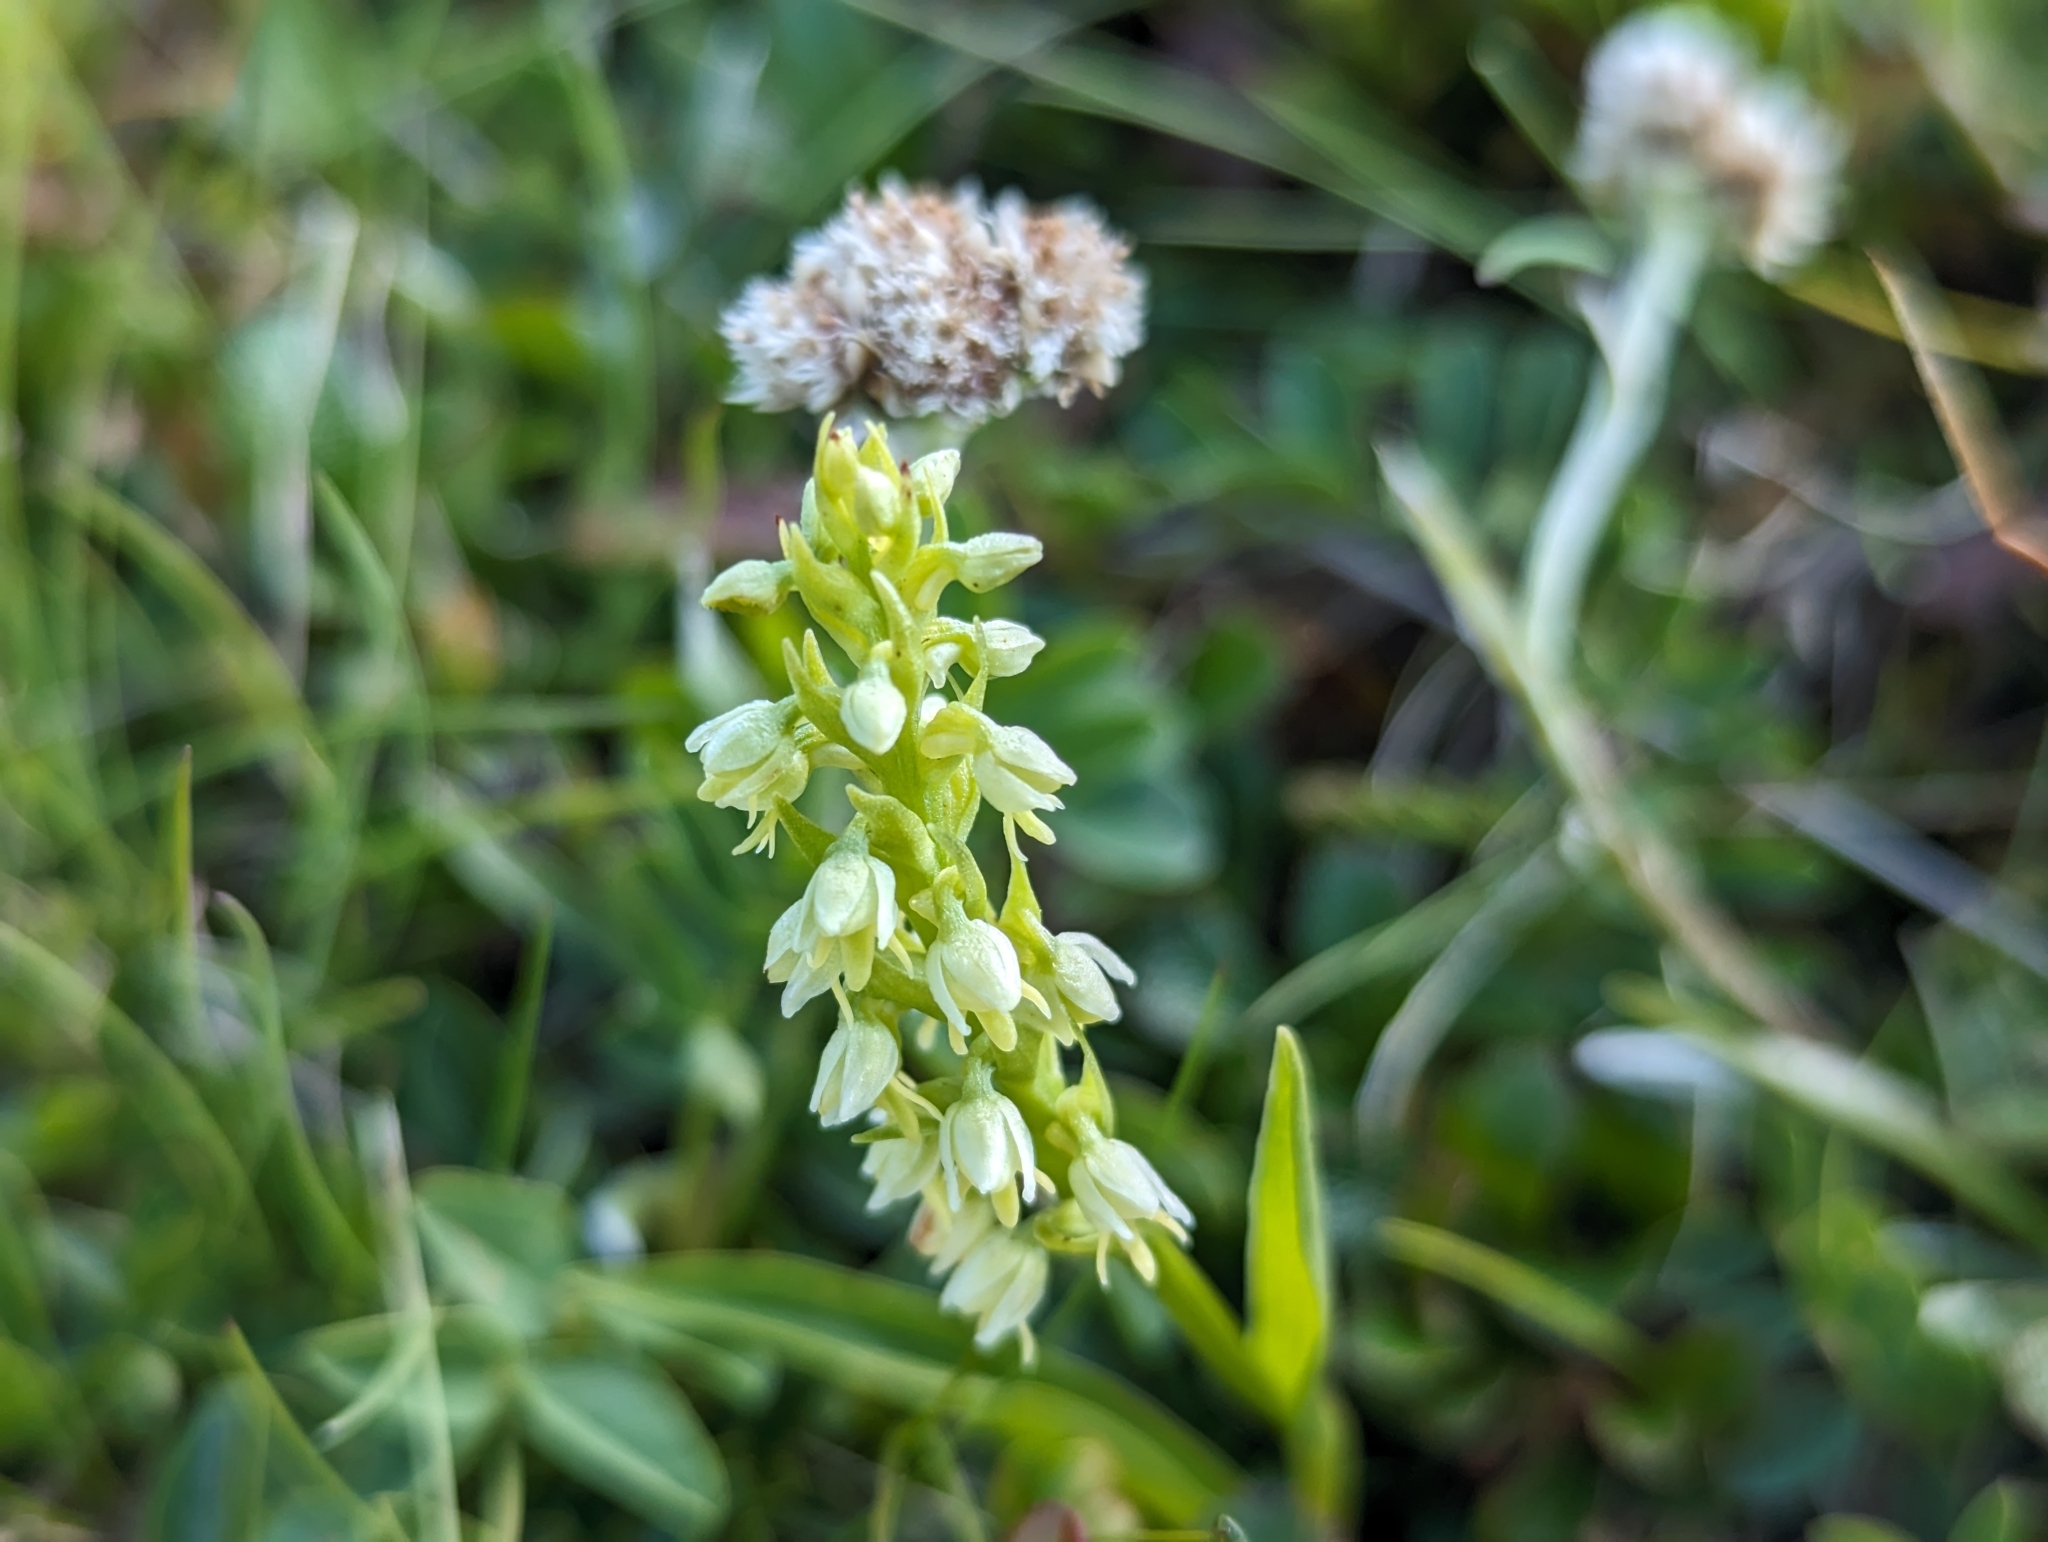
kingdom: Plantae
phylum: Tracheophyta
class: Liliopsida
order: Asparagales
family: Orchidaceae
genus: Pseudorchis
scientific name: Pseudorchis albida
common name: Small-white orchid
